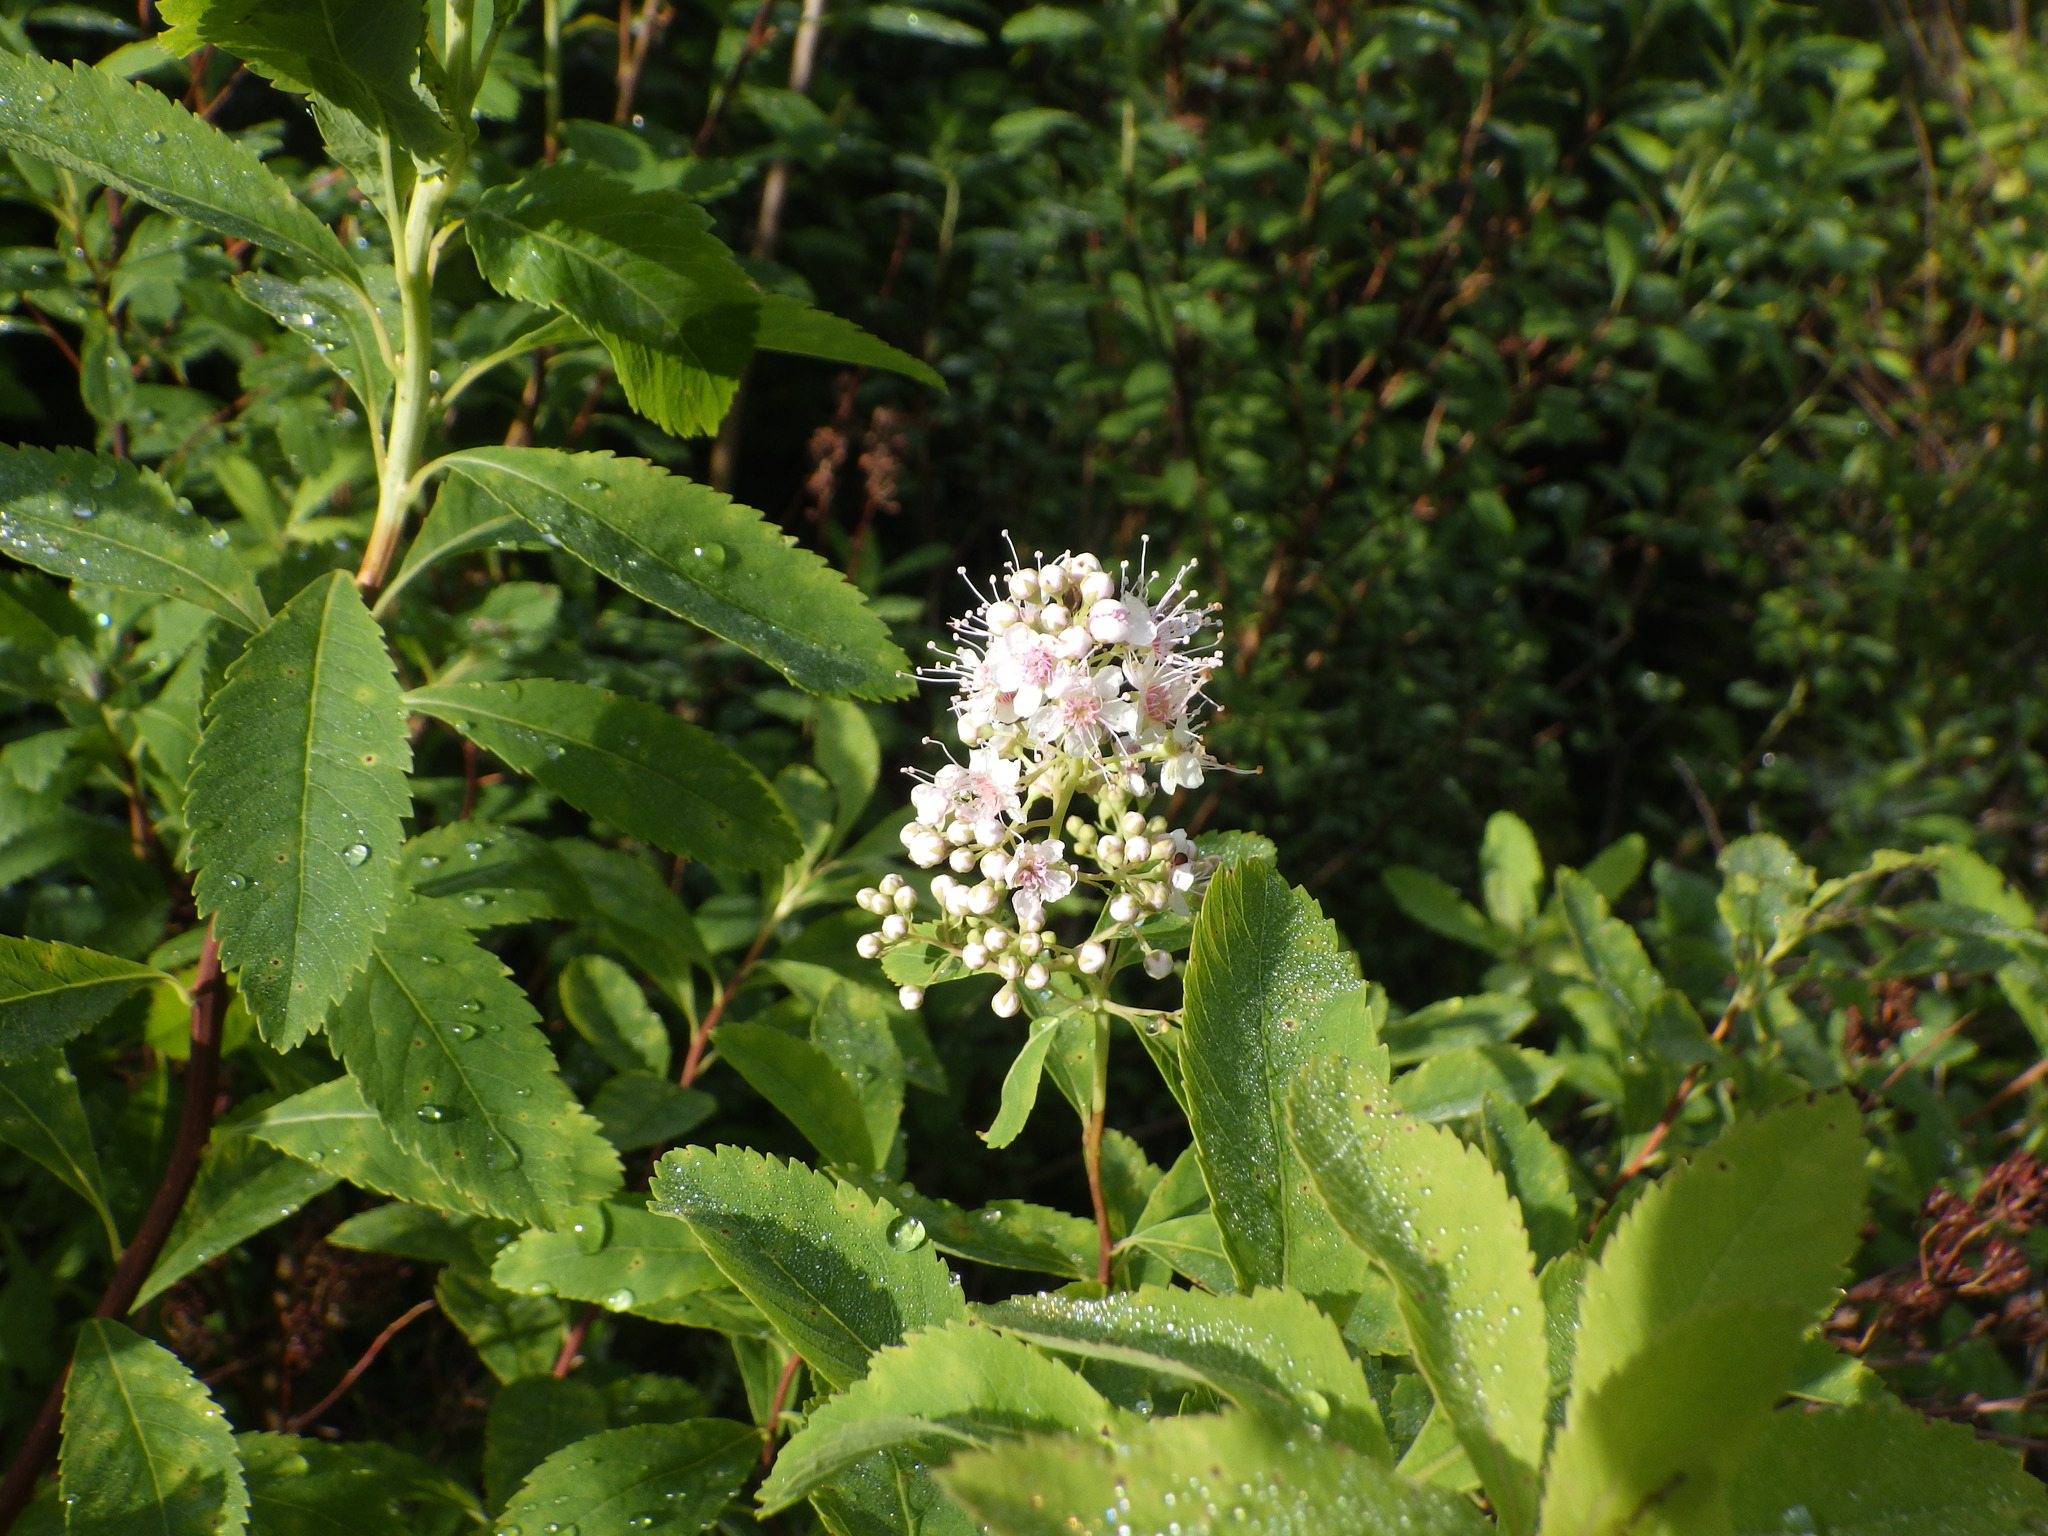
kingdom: Plantae
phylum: Tracheophyta
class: Magnoliopsida
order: Rosales
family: Rosaceae
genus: Spiraea
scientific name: Spiraea alba
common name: Pale bridewort
